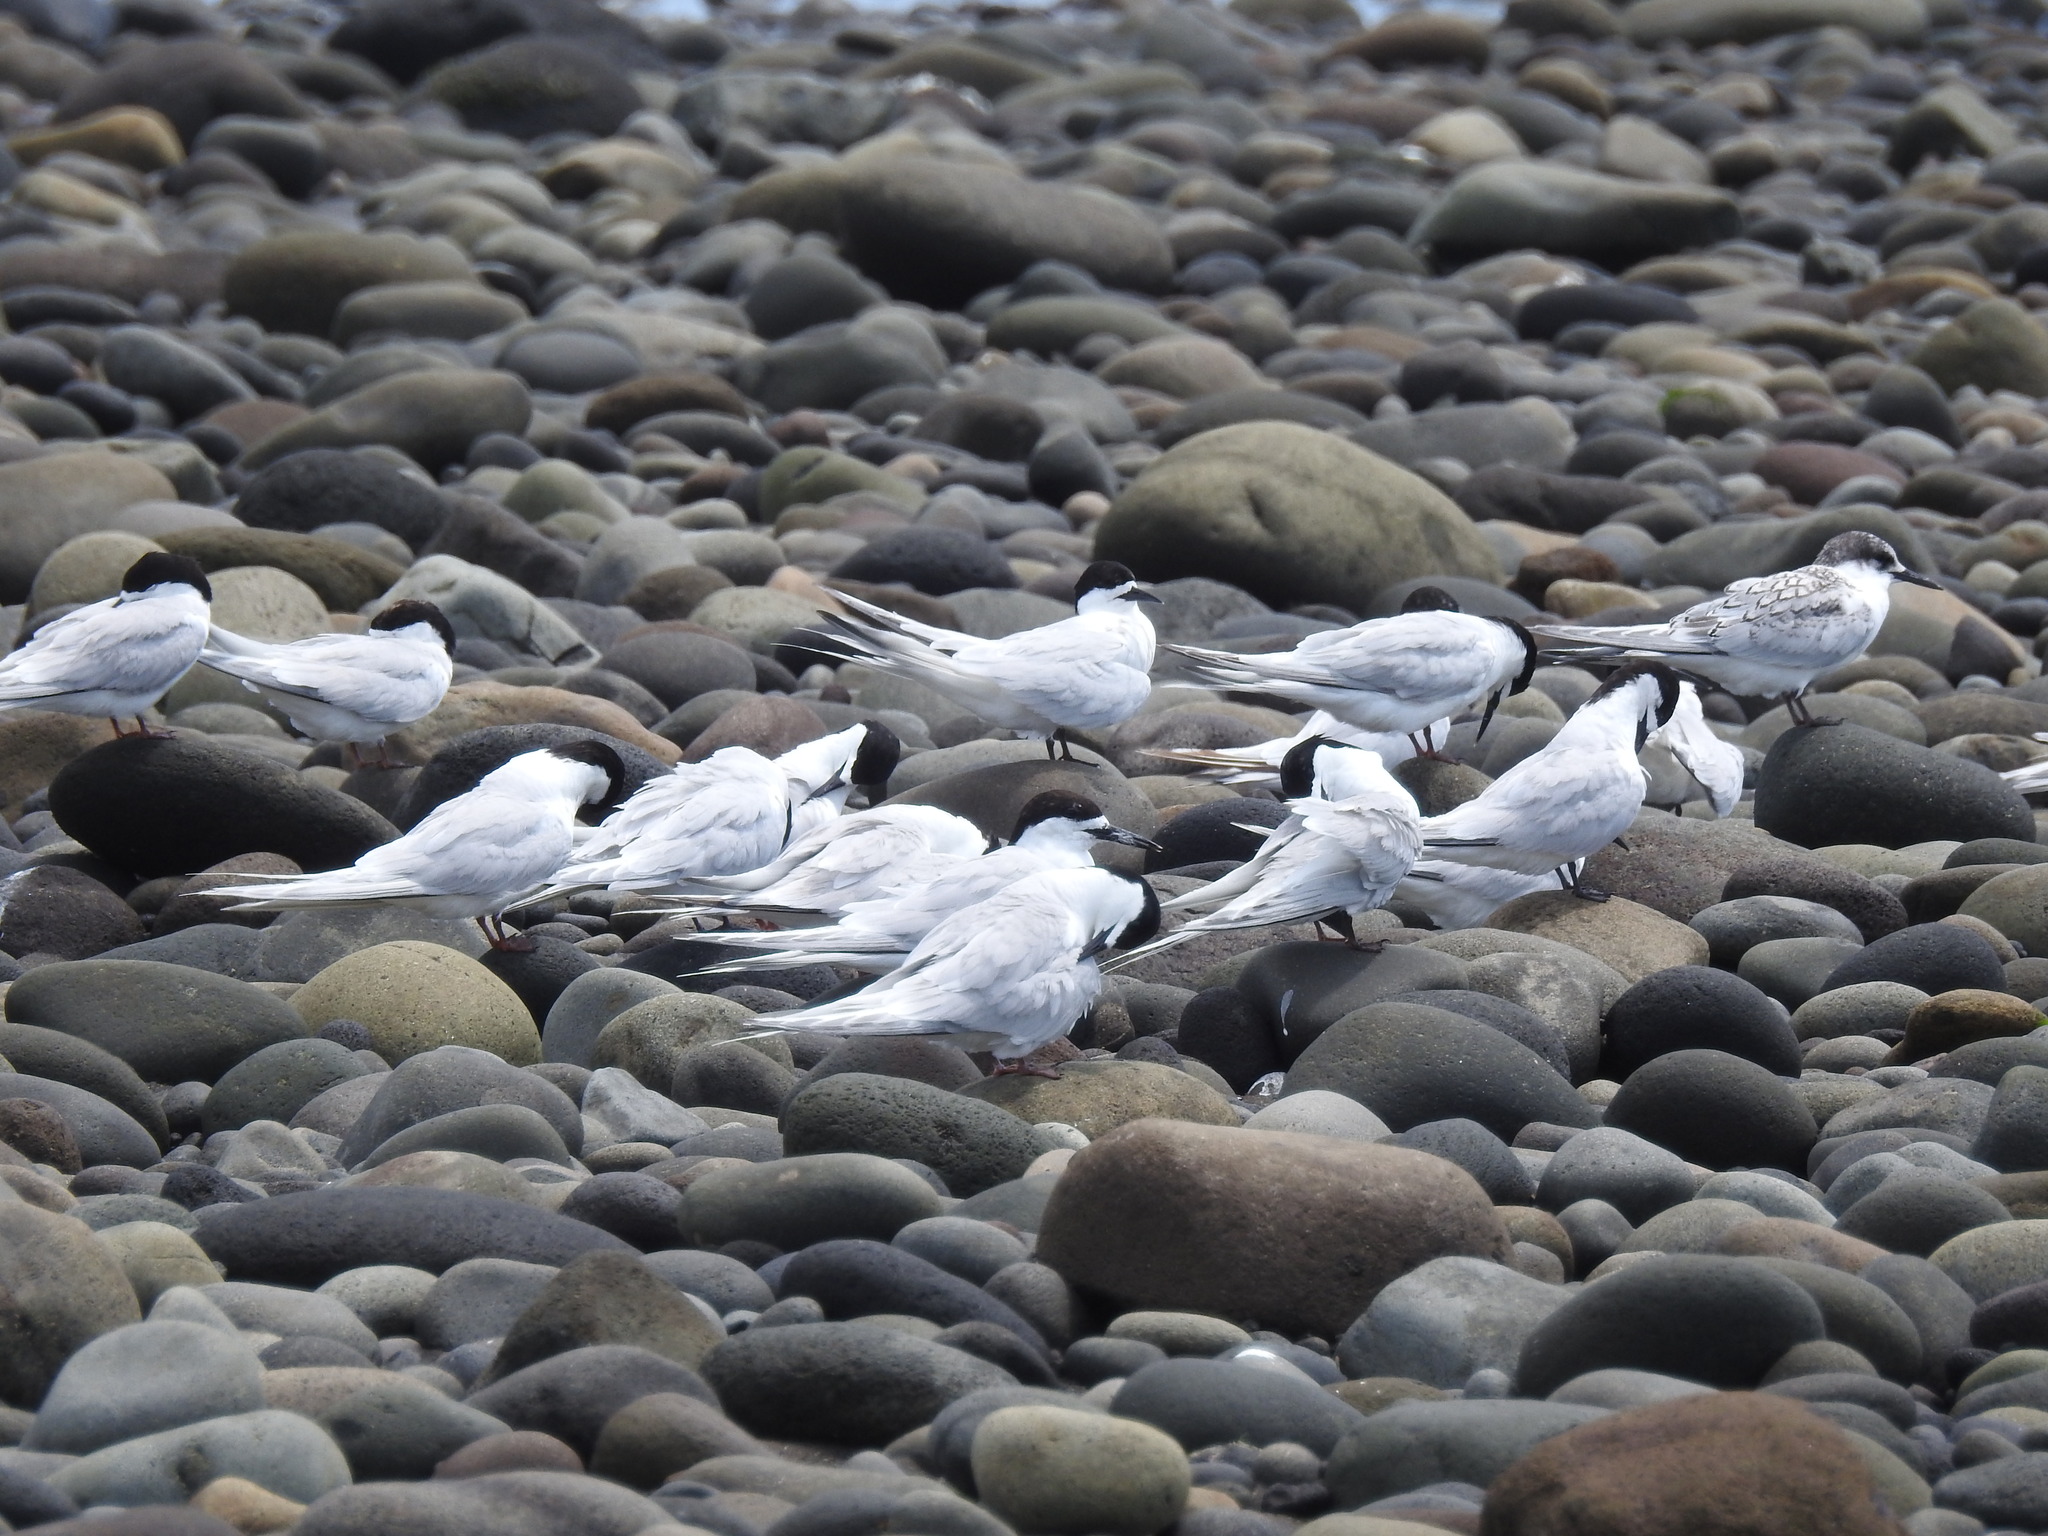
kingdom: Animalia
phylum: Chordata
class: Aves
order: Charadriiformes
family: Laridae
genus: Sterna
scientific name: Sterna striata
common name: White-fronted tern
